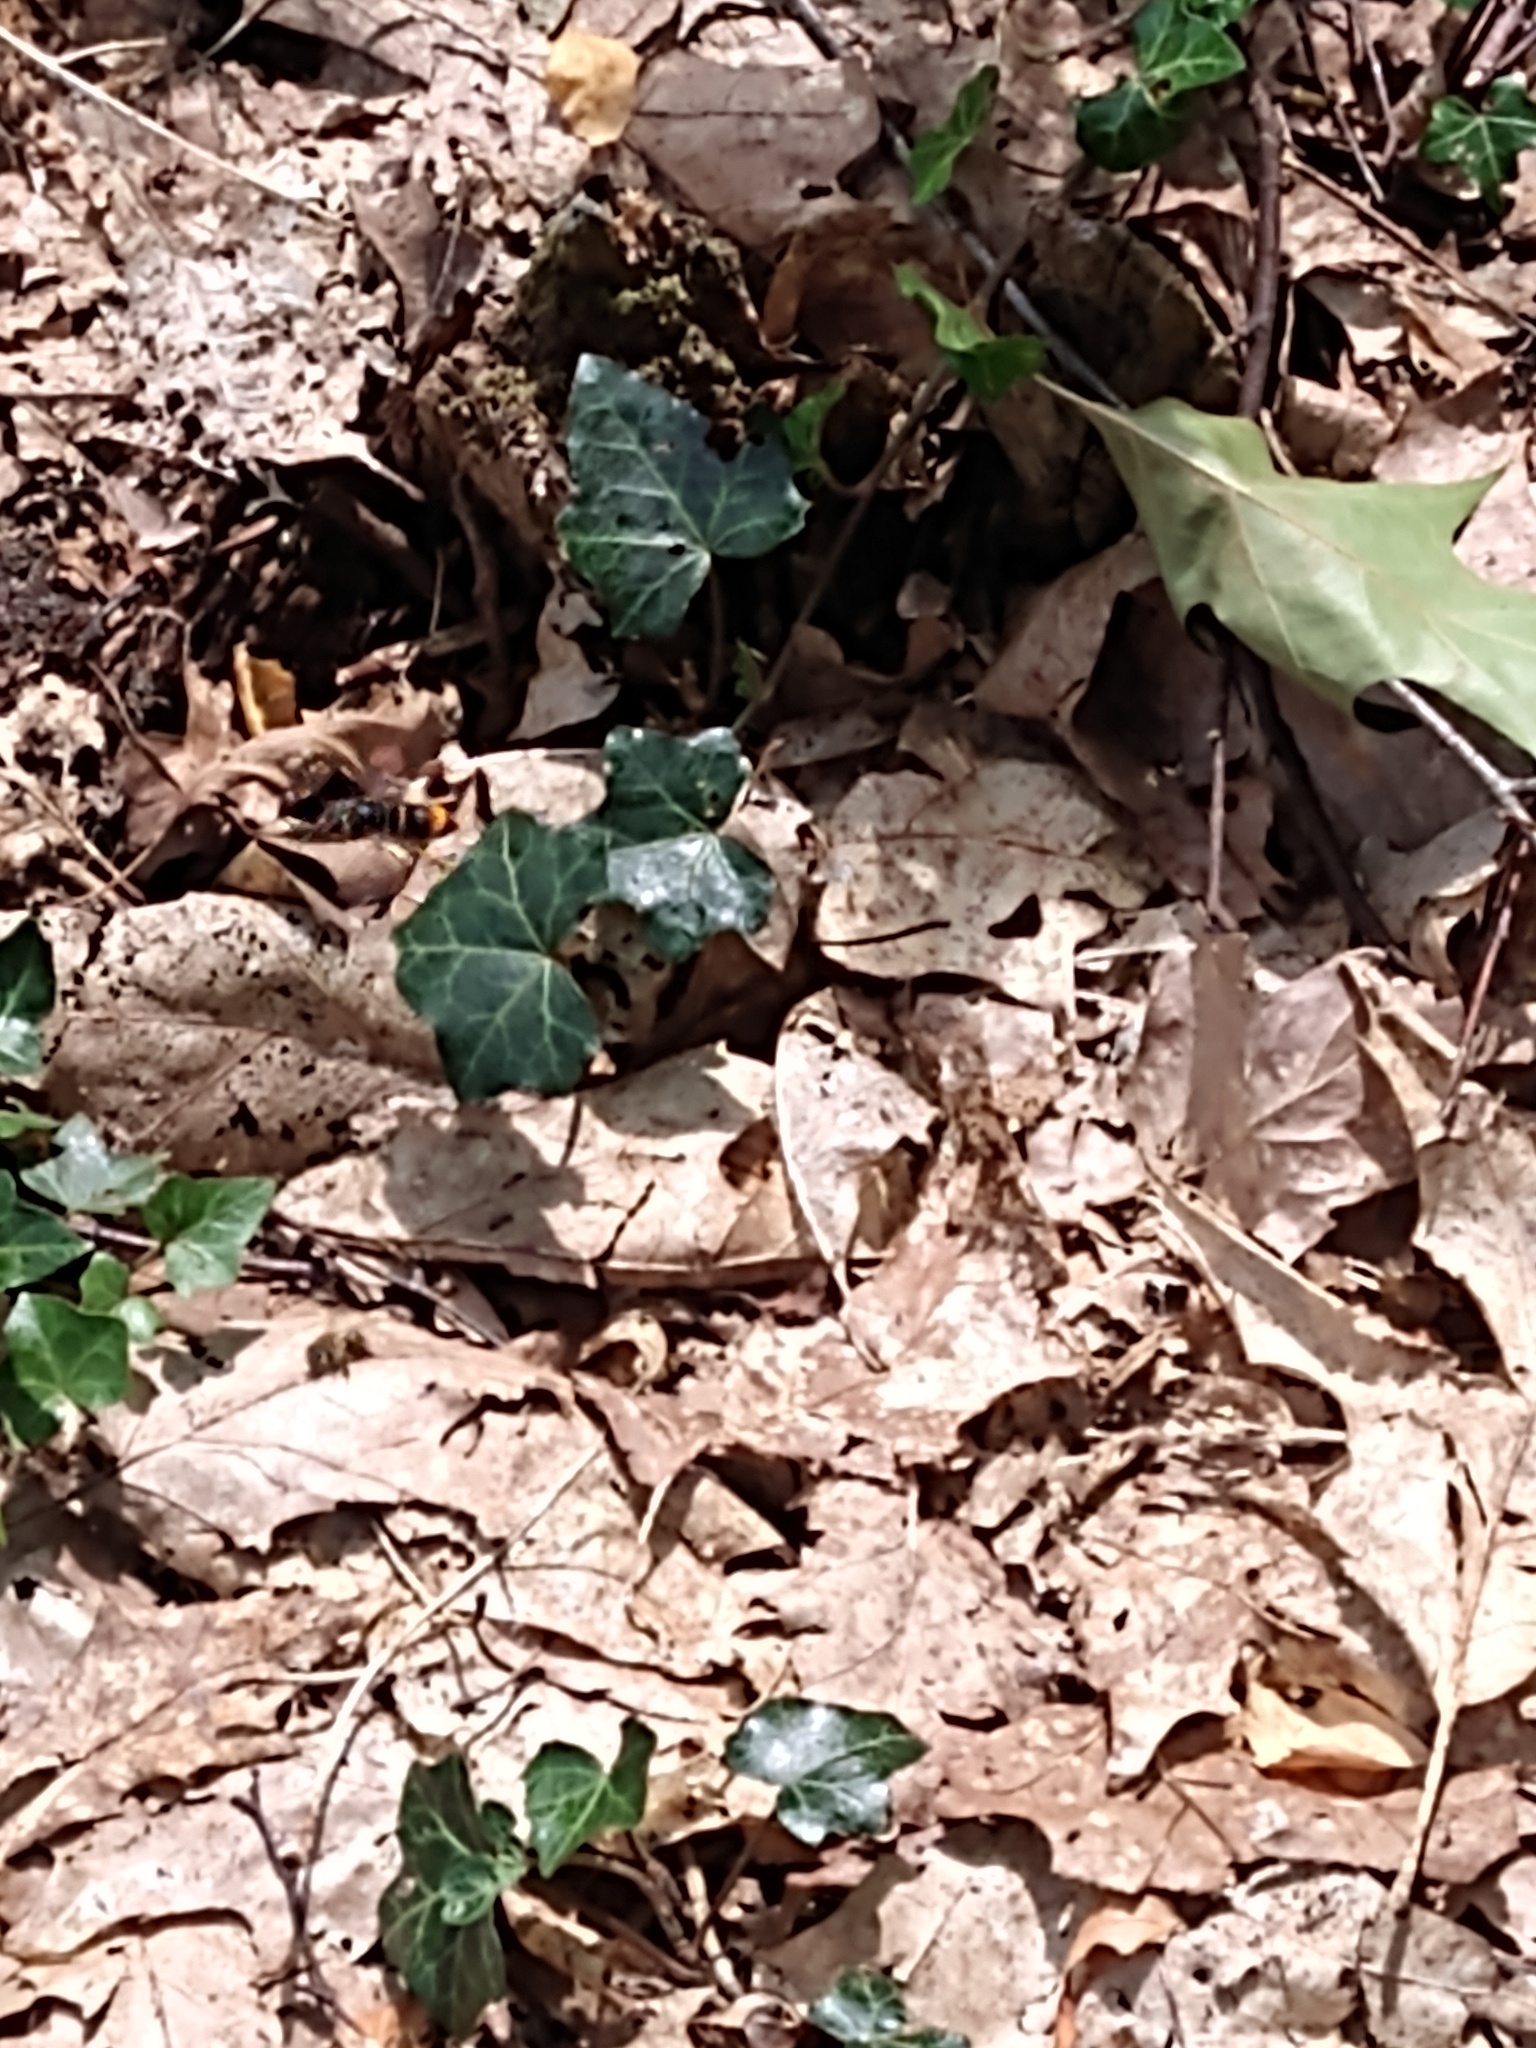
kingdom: Animalia
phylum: Arthropoda
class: Insecta
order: Hymenoptera
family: Vespidae
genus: Vespa
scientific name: Vespa velutina
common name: Asian hornet
